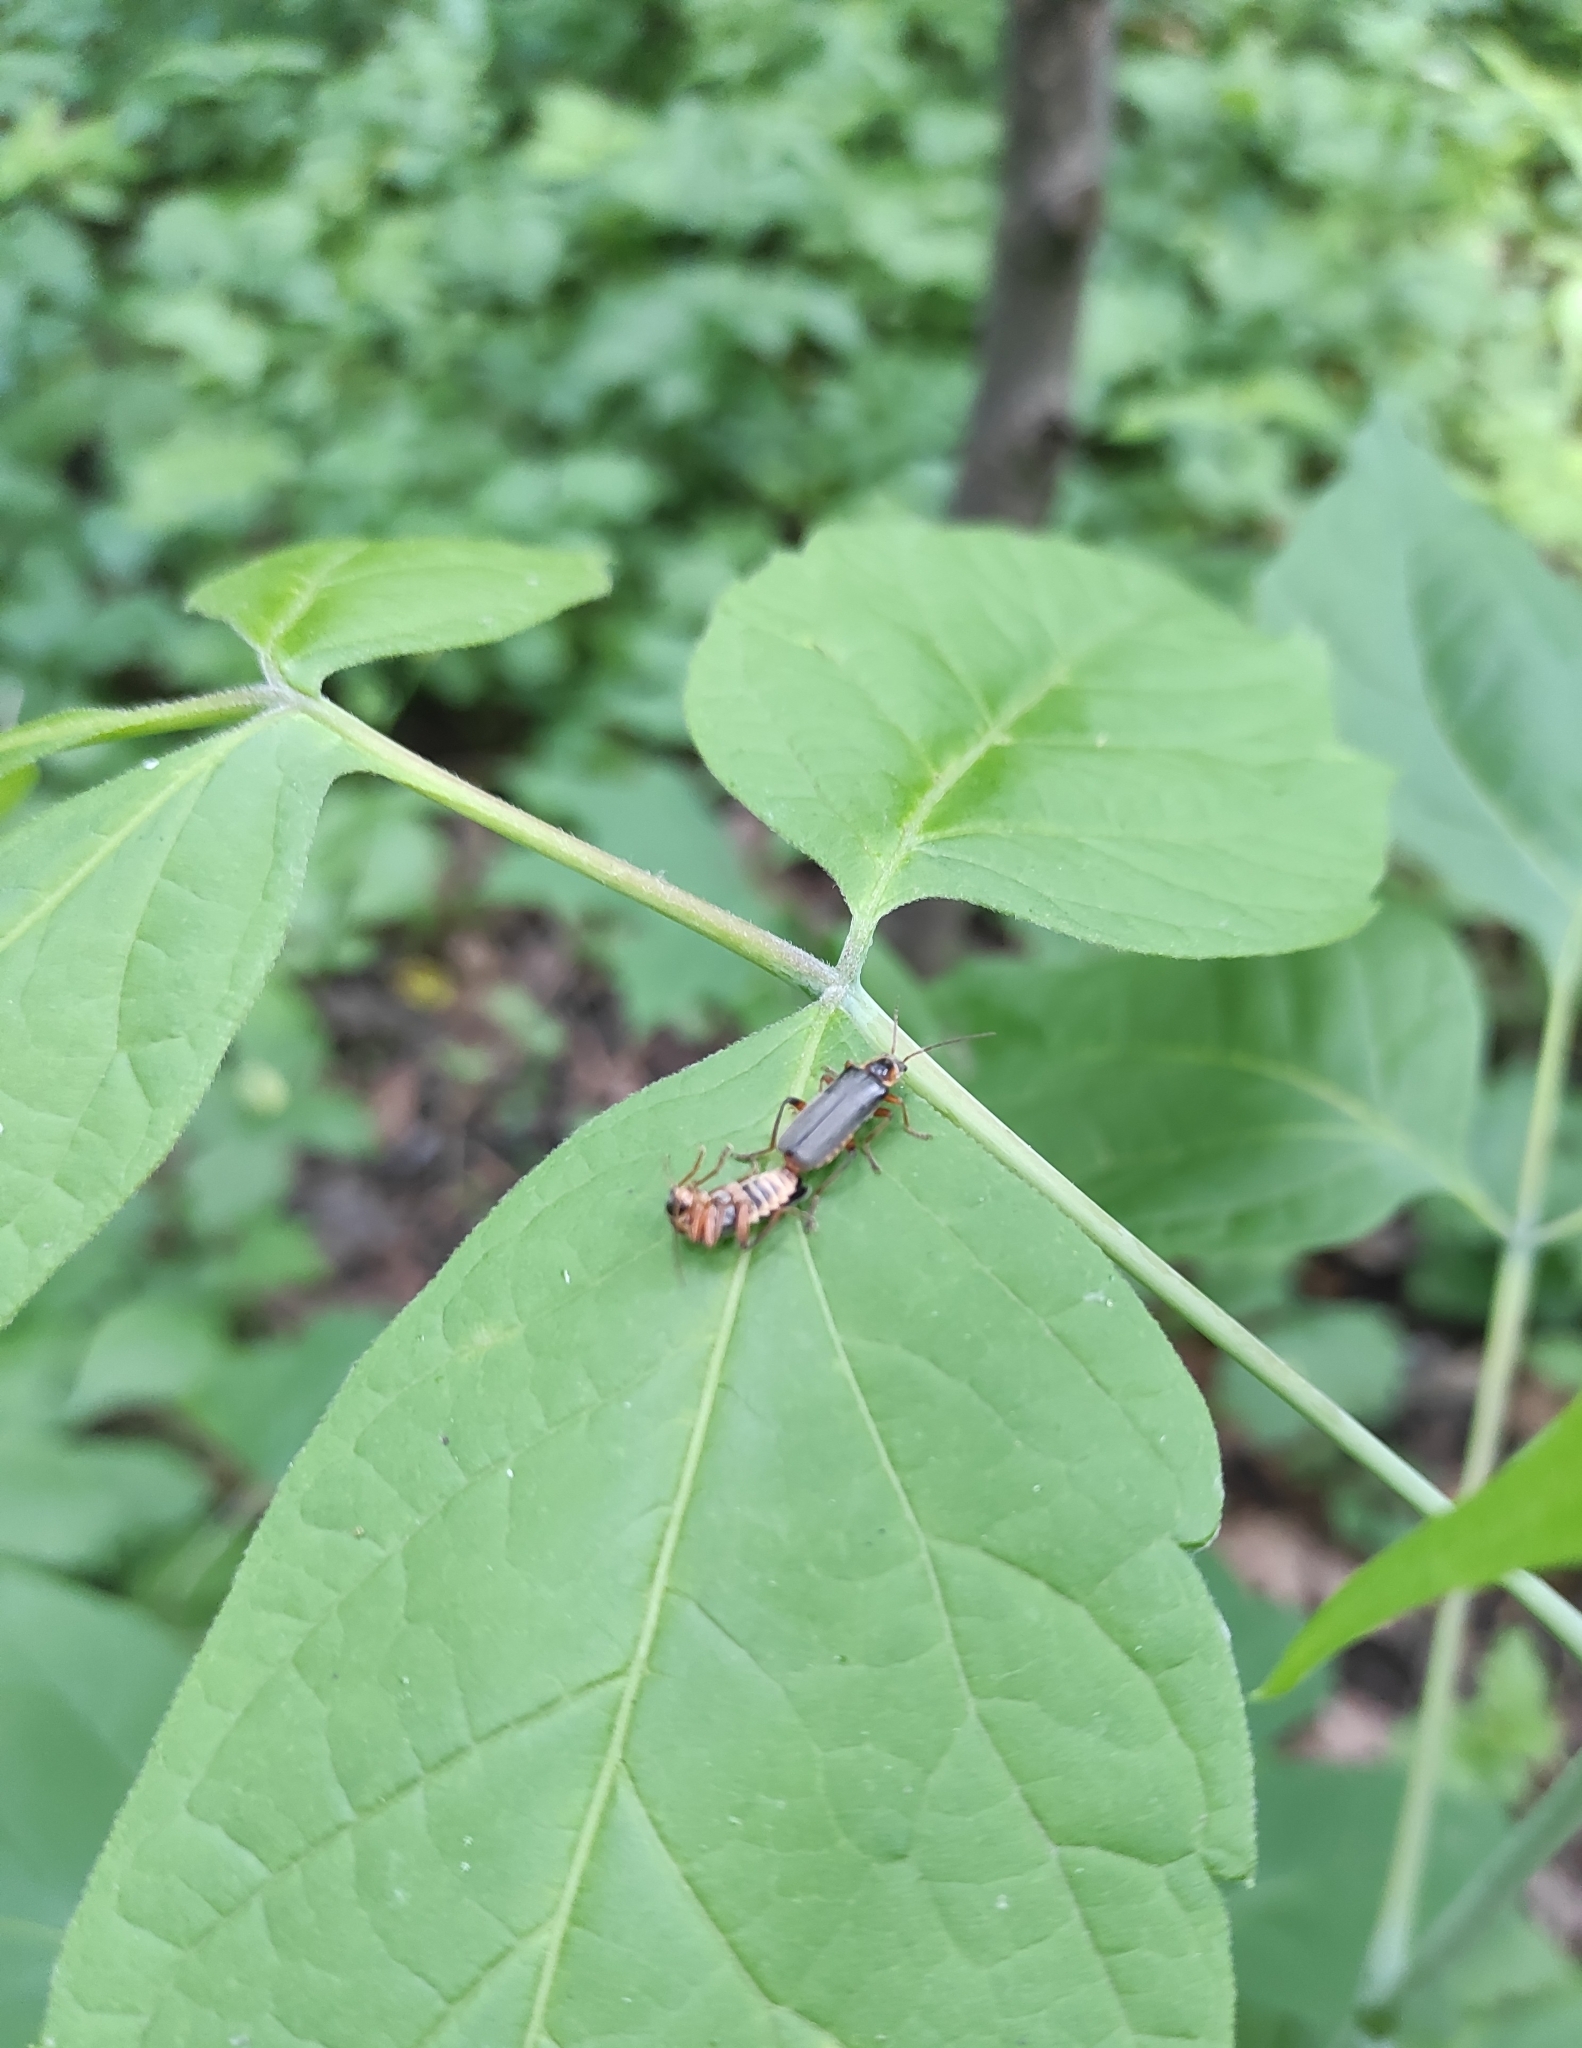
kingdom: Animalia
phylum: Arthropoda
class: Insecta
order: Coleoptera
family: Cantharidae
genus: Cantharis
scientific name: Cantharis nigricans
